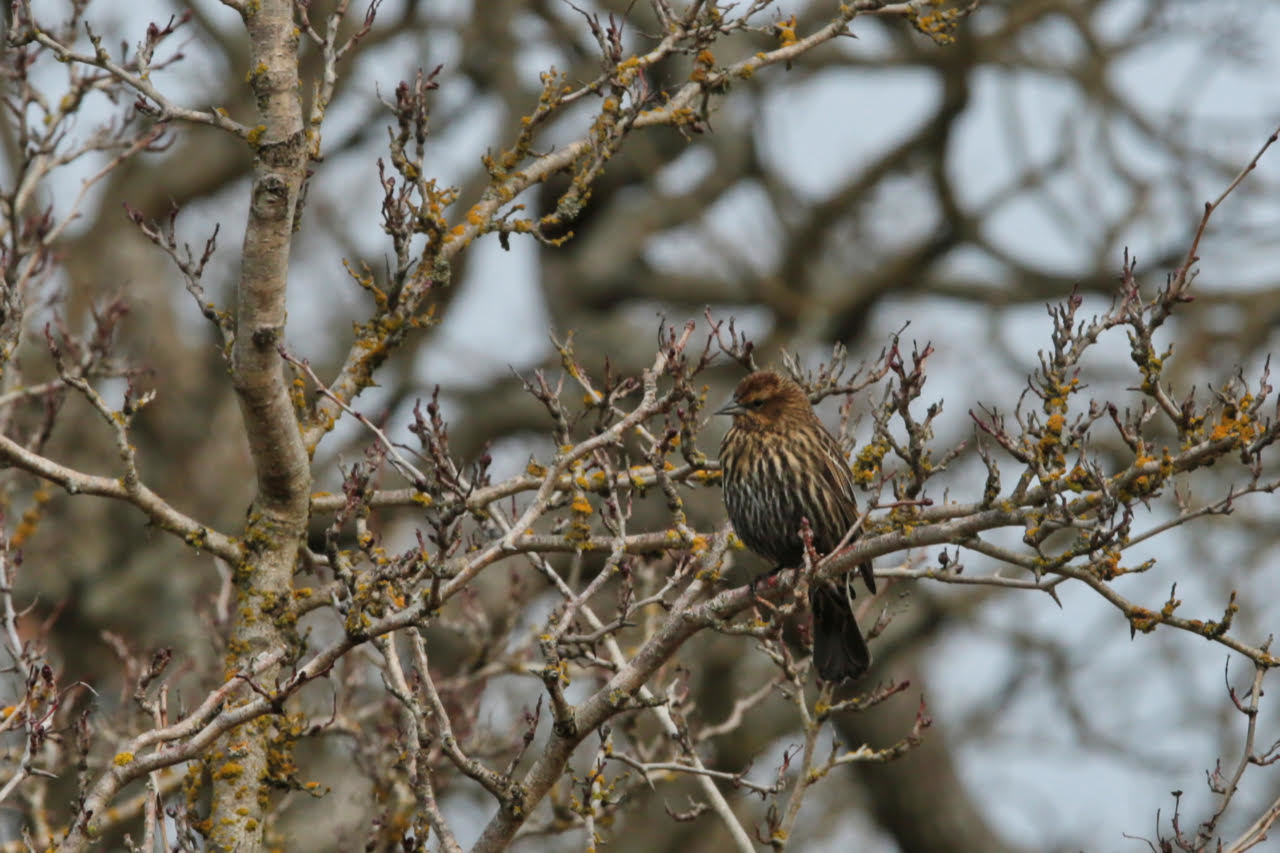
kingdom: Animalia
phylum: Chordata
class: Aves
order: Passeriformes
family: Icteridae
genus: Agelaius
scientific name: Agelaius phoeniceus
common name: Red-winged blackbird
